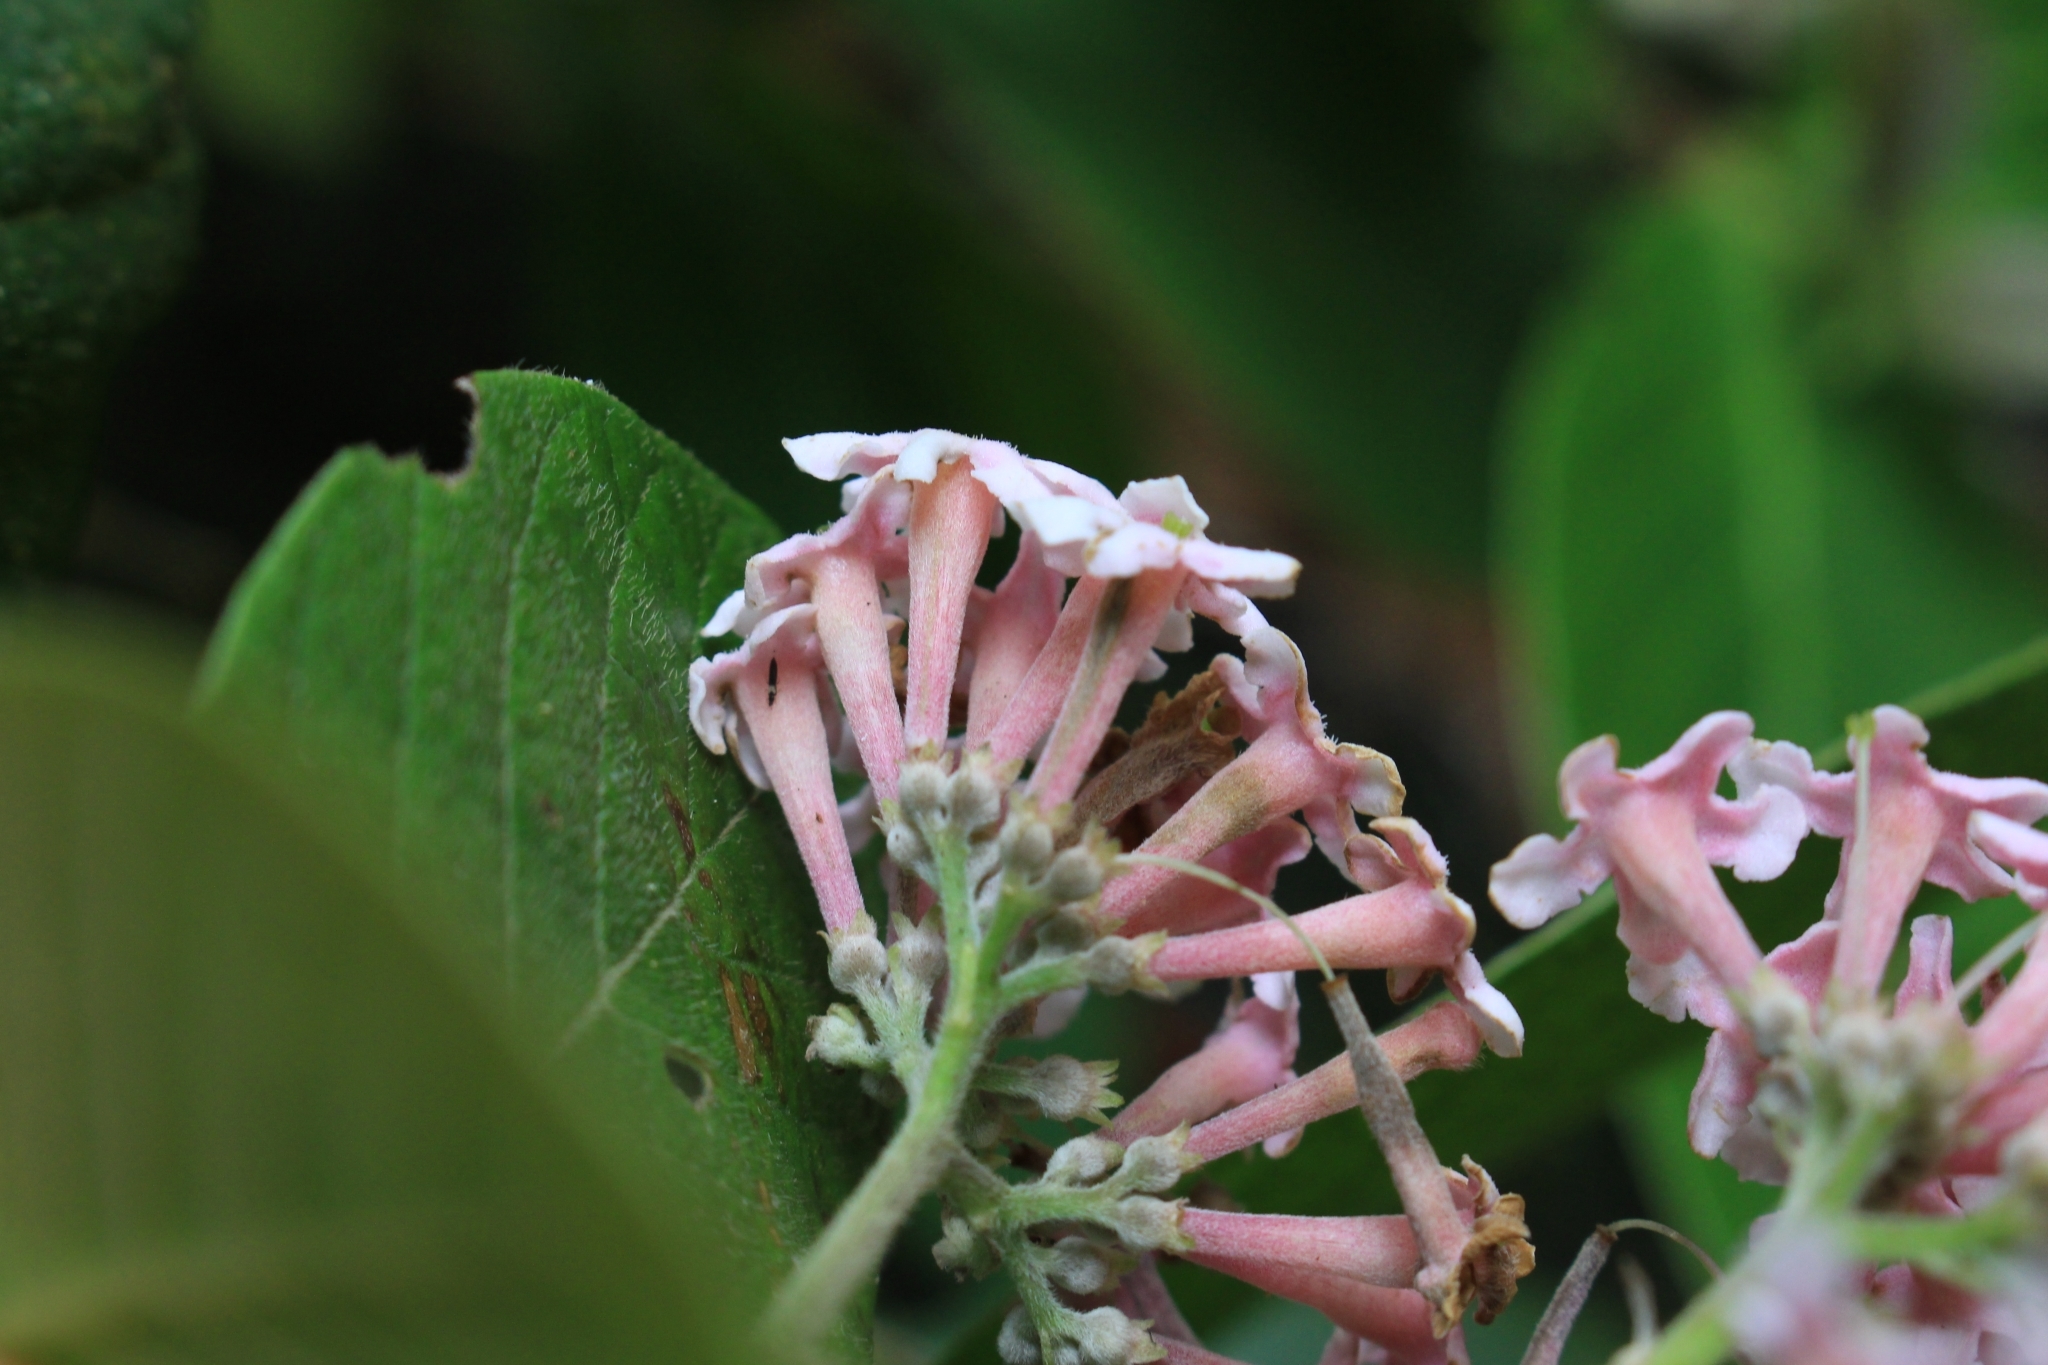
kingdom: Plantae
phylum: Tracheophyta
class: Magnoliopsida
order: Gentianales
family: Rubiaceae
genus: Rogiera
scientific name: Rogiera amoena
